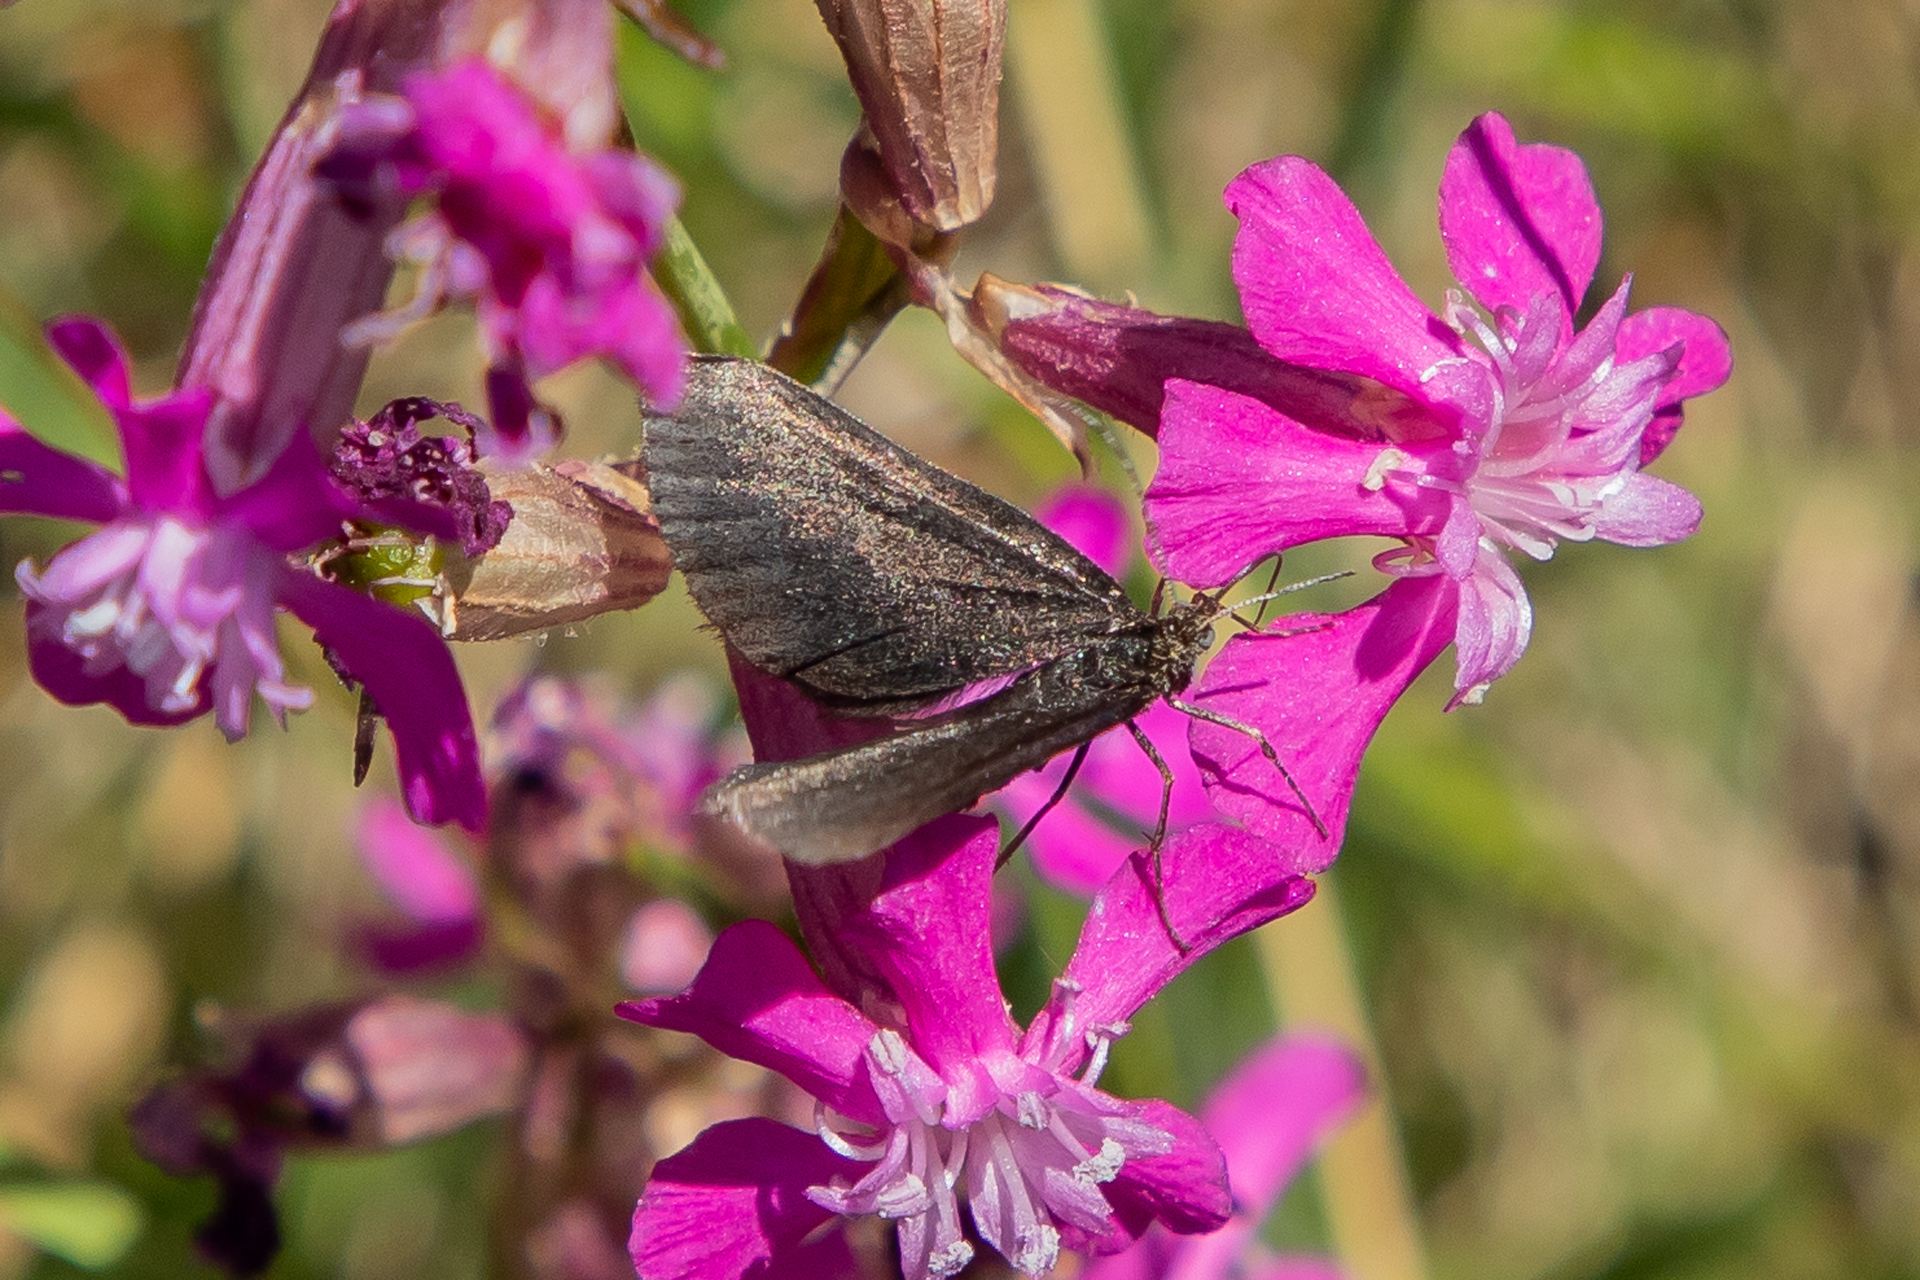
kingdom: Animalia
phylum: Arthropoda
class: Insecta
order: Lepidoptera
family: Geometridae
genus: Odezia
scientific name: Odezia atrata
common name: Chimney sweeper
